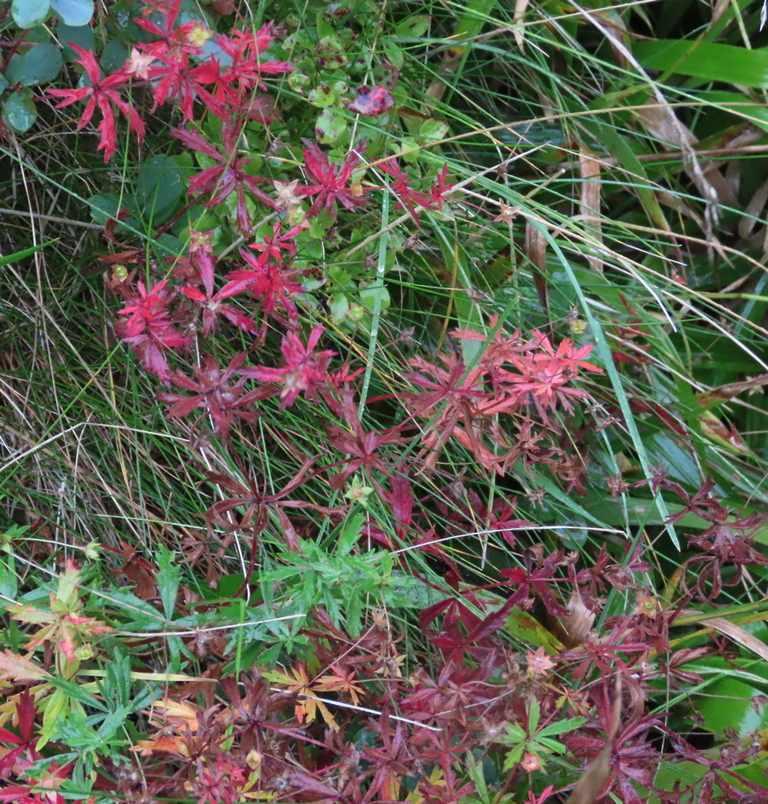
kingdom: Plantae
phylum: Tracheophyta
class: Magnoliopsida
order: Rosales
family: Rosaceae
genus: Potentilla
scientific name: Potentilla erecta
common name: Tormentil
